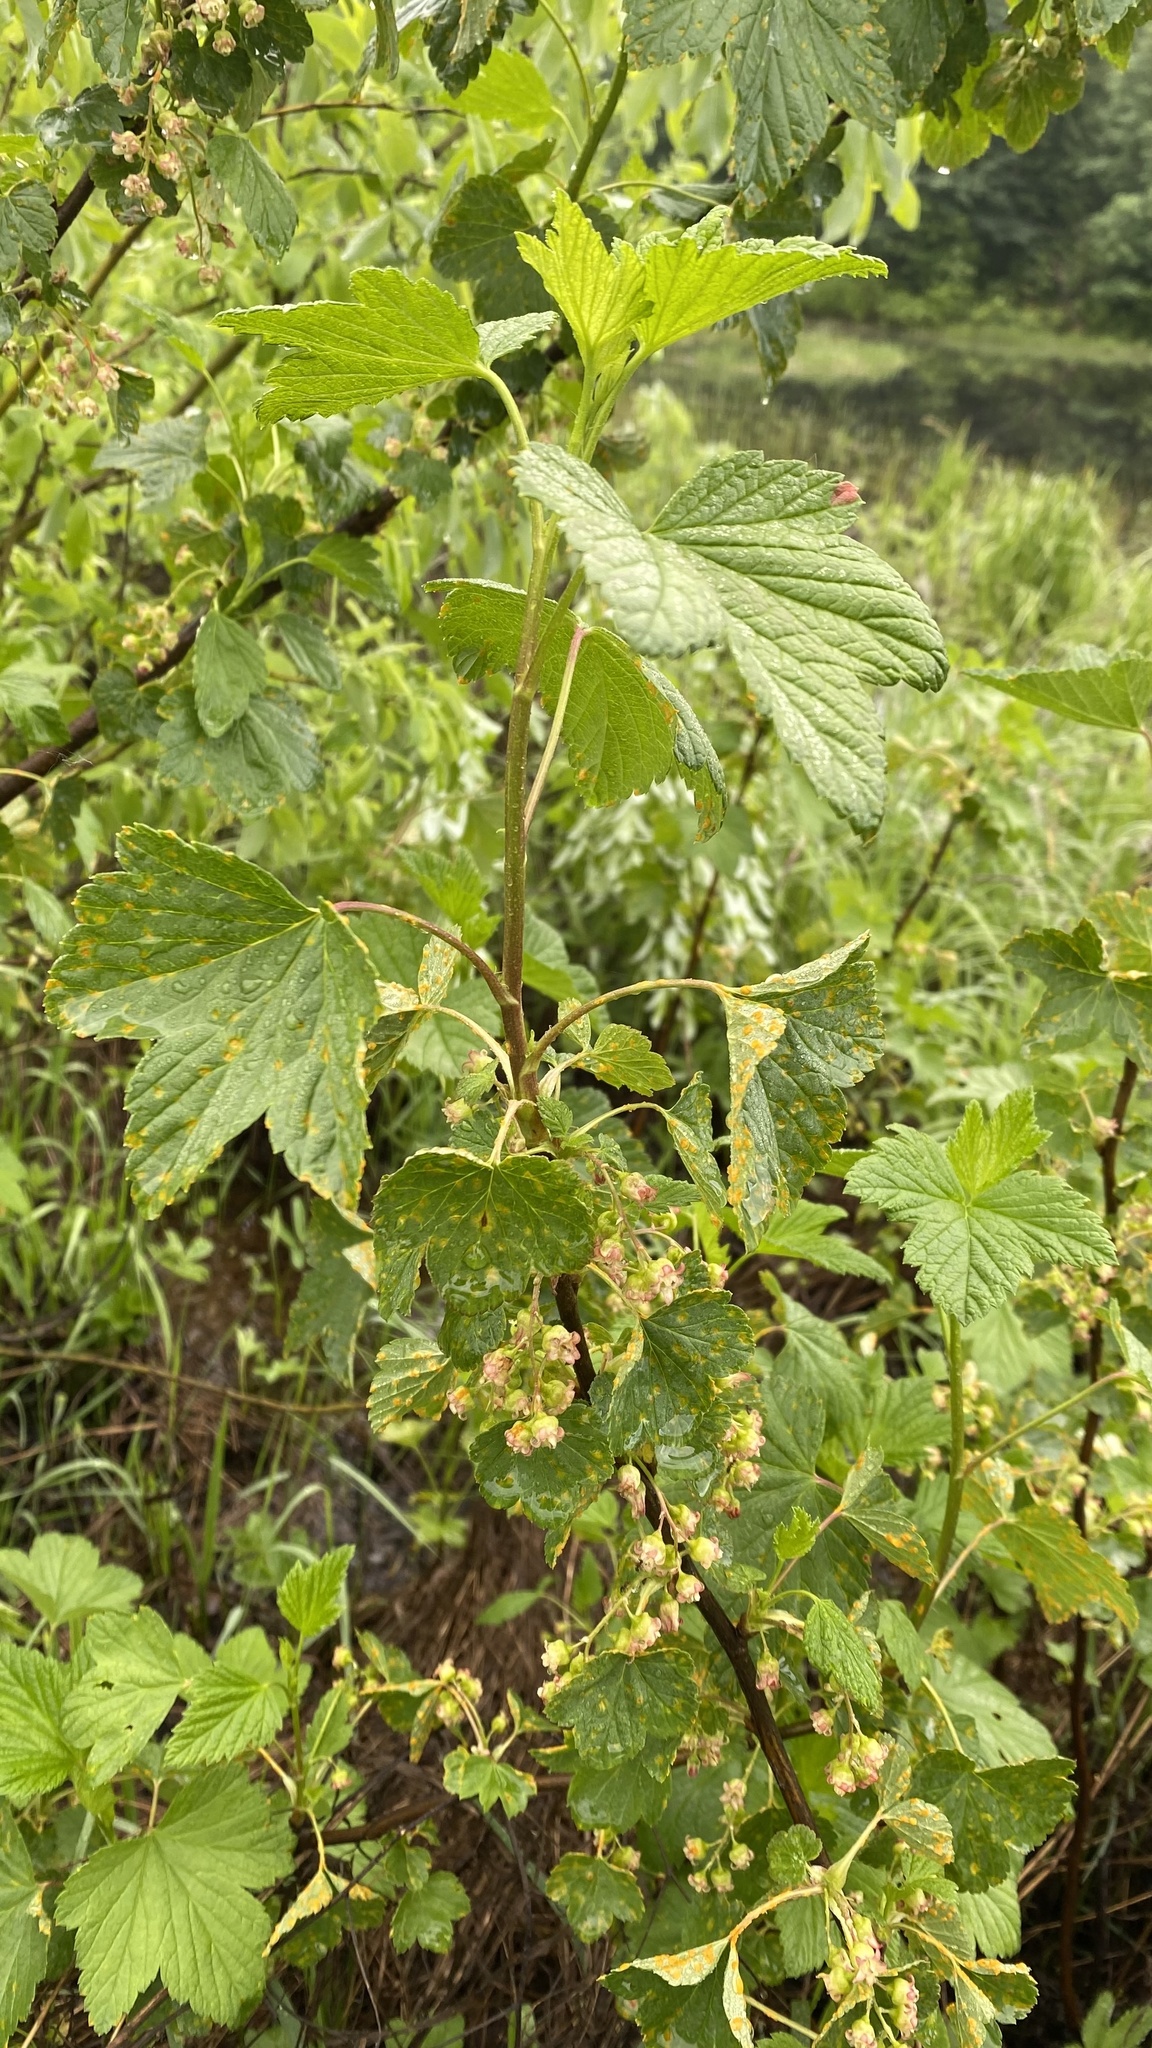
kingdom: Plantae
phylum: Tracheophyta
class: Magnoliopsida
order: Saxifragales
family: Grossulariaceae
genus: Ribes
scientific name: Ribes nigrum
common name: Black currant
